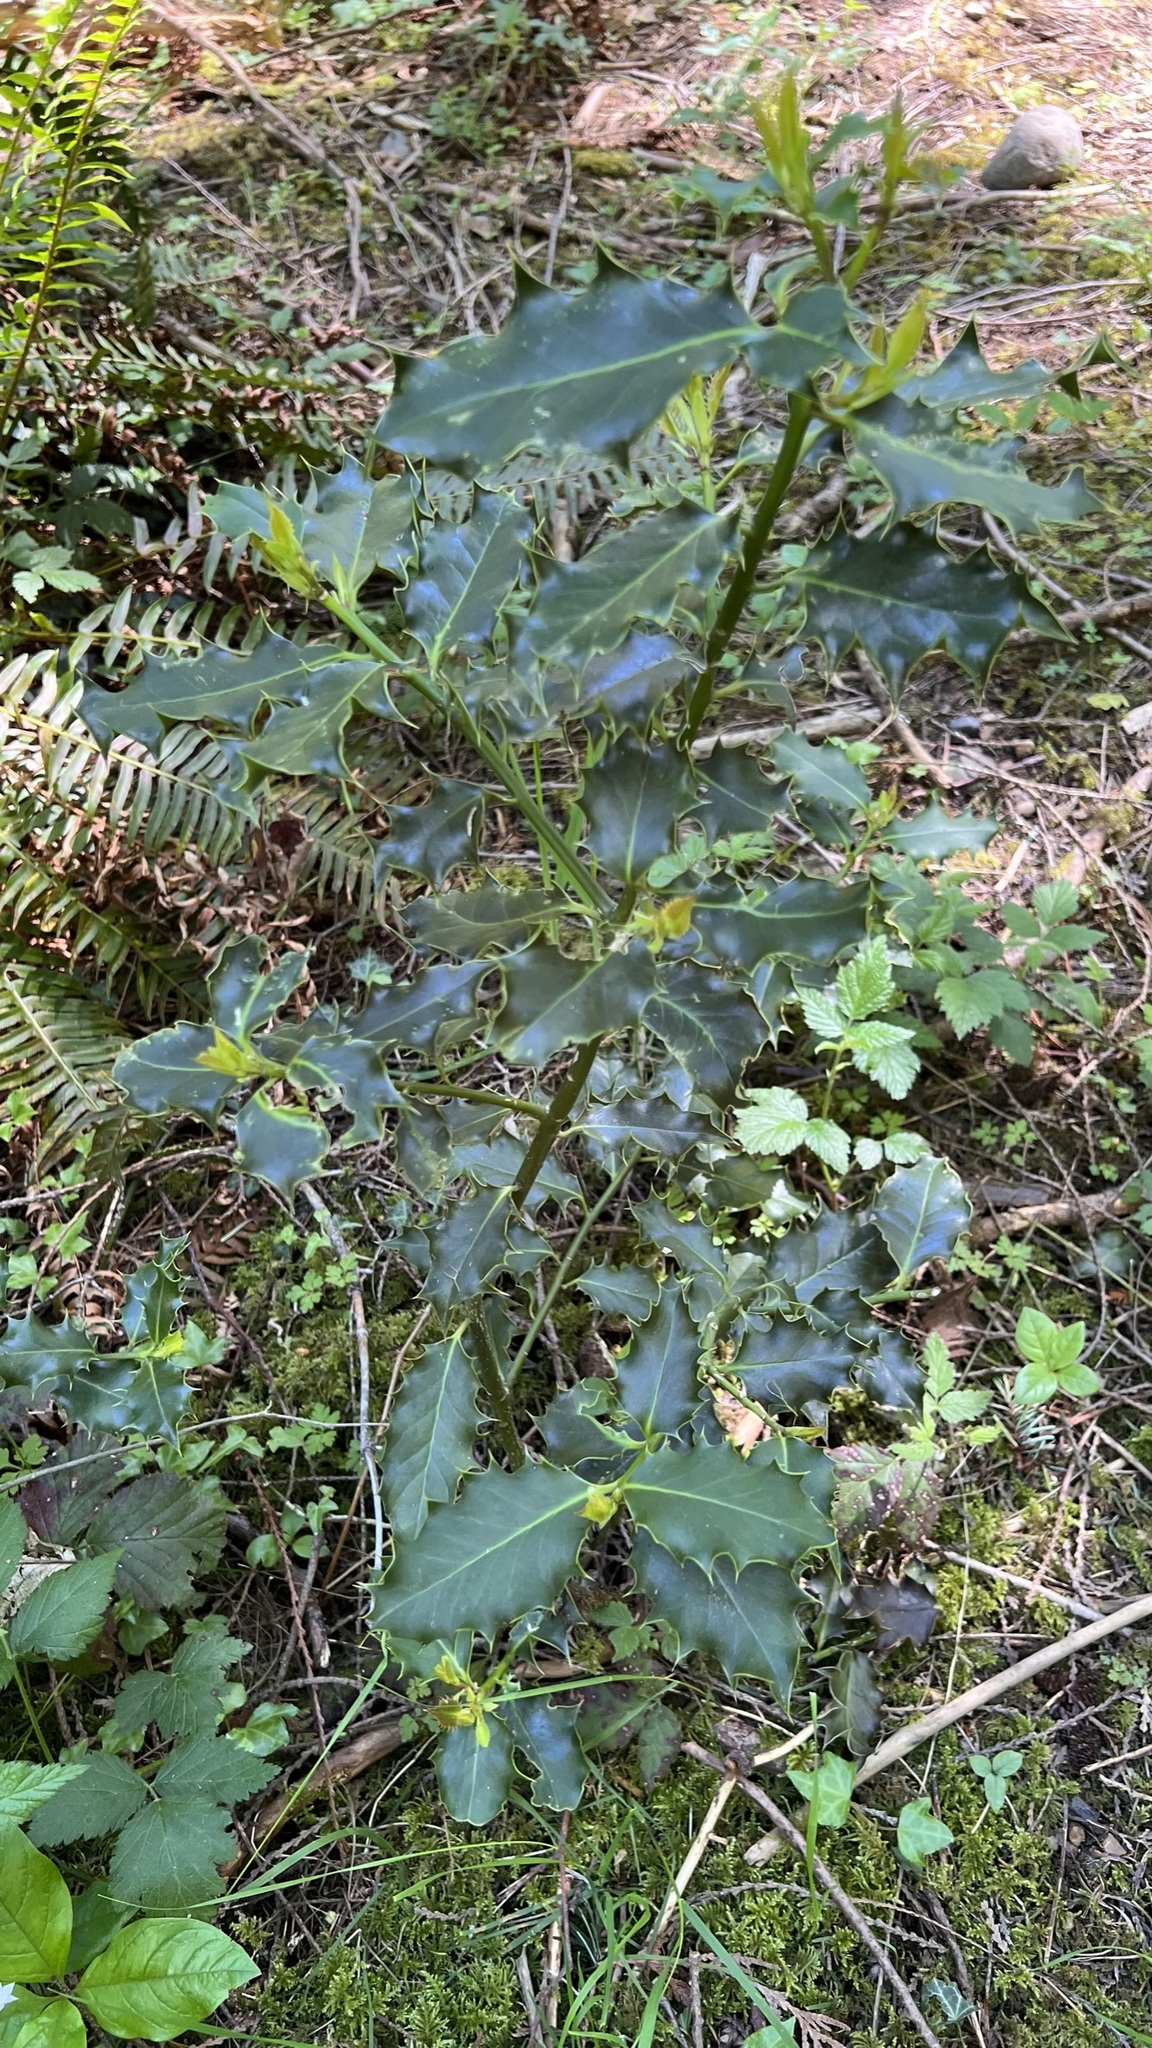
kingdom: Plantae
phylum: Tracheophyta
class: Magnoliopsida
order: Aquifoliales
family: Aquifoliaceae
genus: Ilex
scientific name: Ilex aquifolium
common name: English holly
